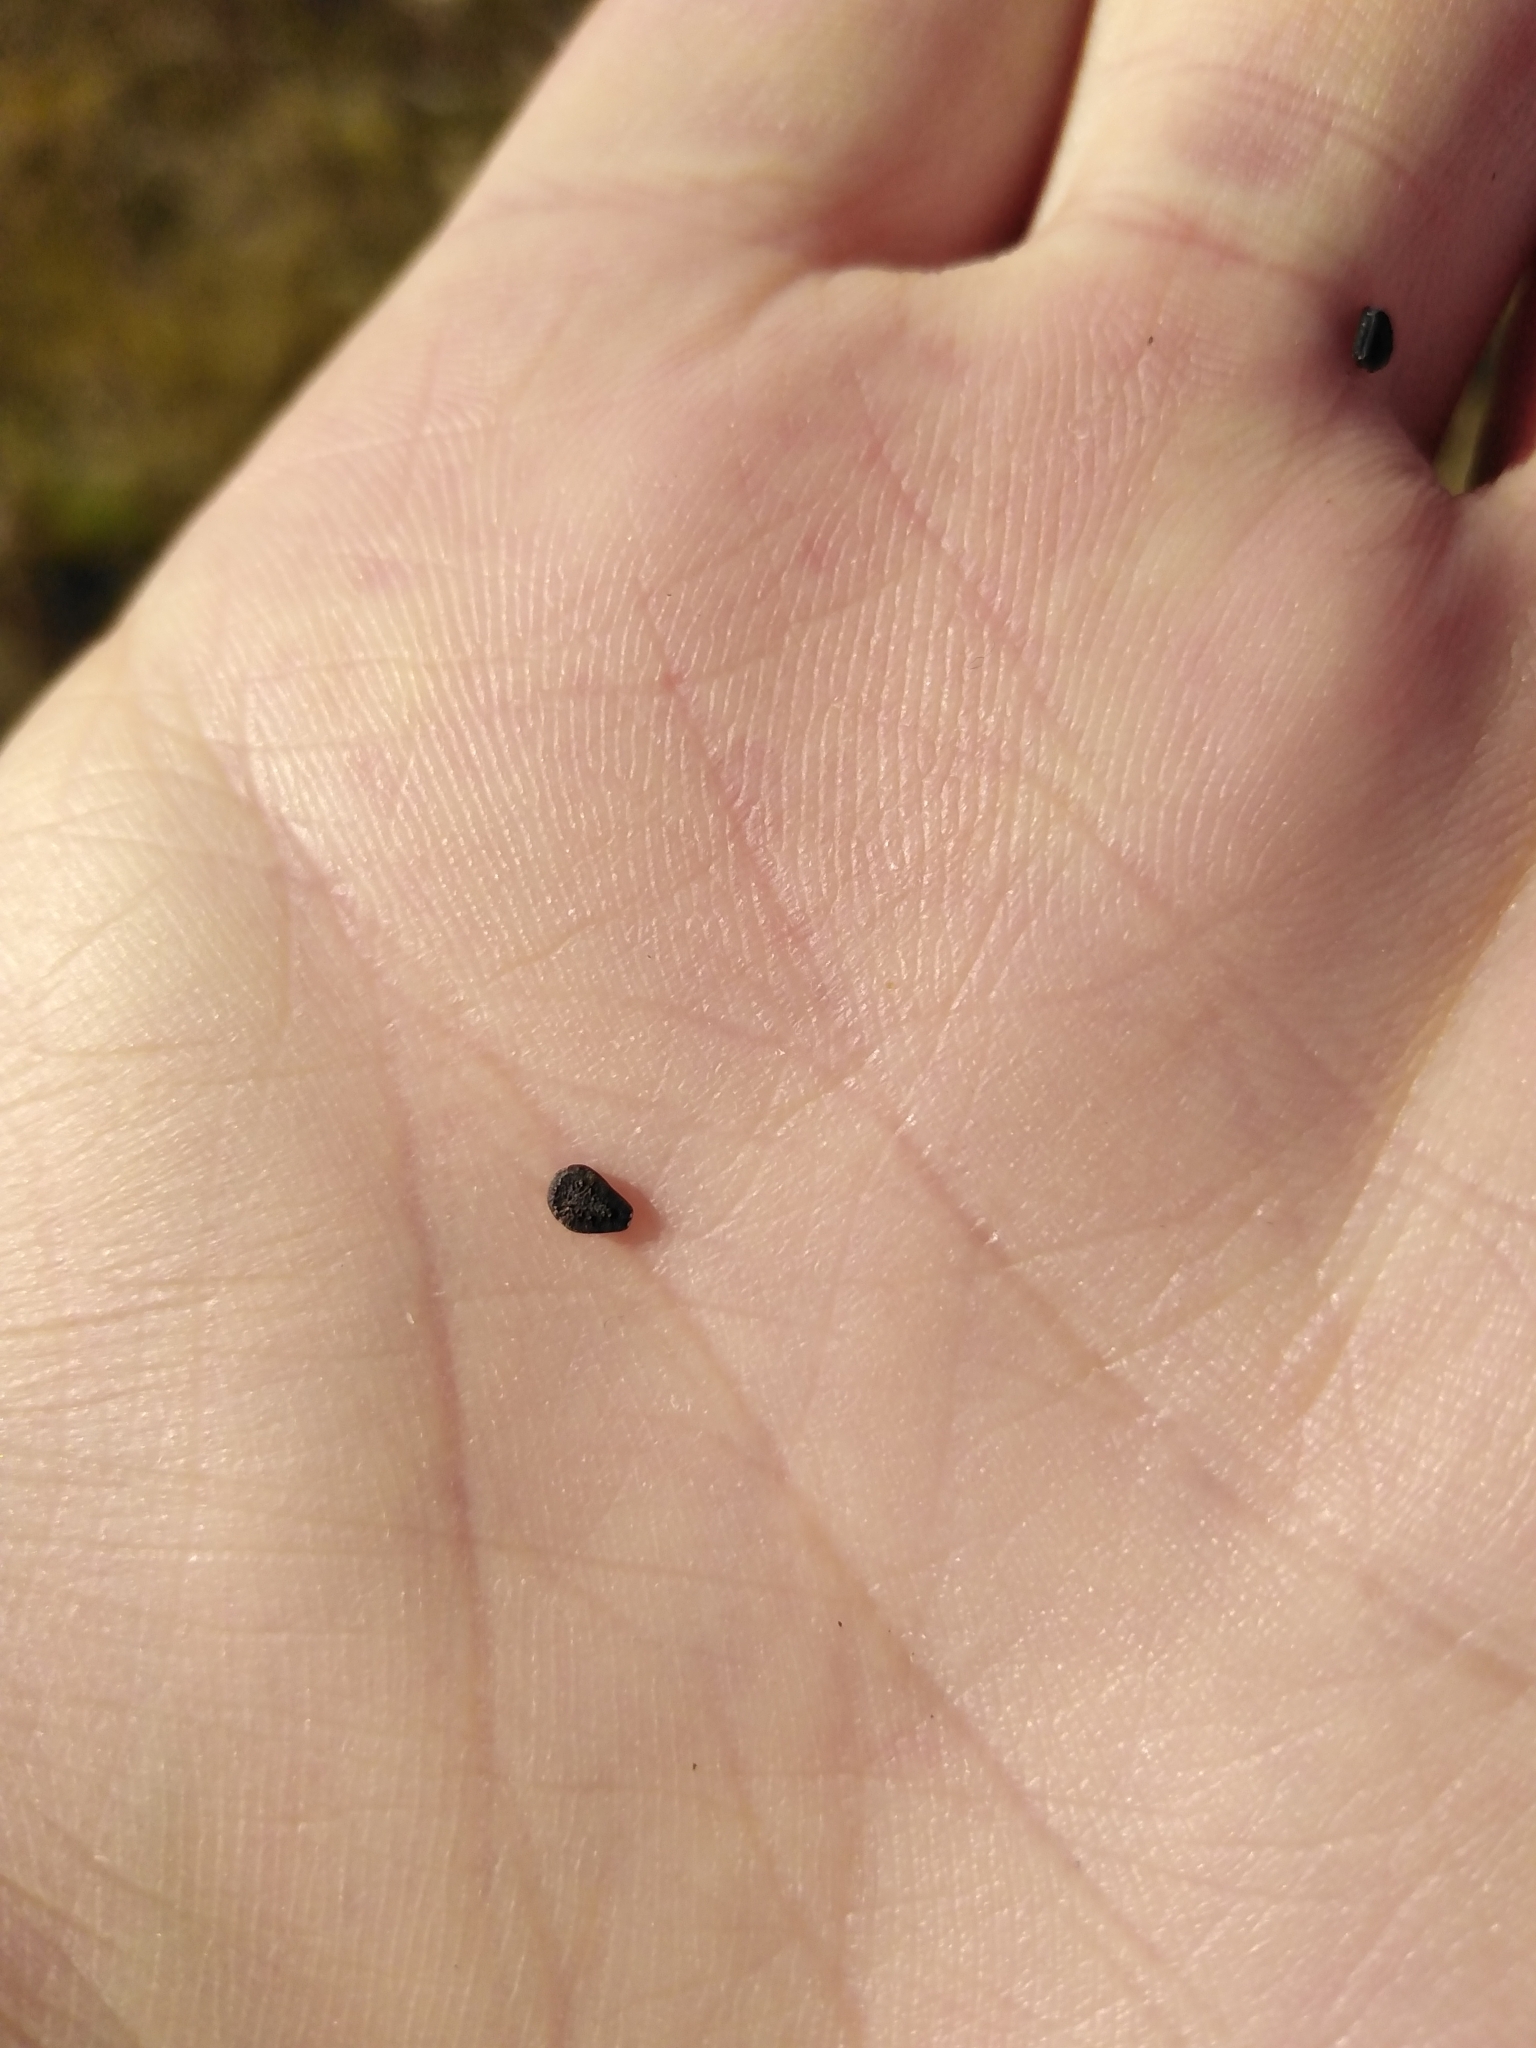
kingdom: Plantae
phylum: Tracheophyta
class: Magnoliopsida
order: Lamiales
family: Pedaliaceae
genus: Sesamum
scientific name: Sesamum trilobum
